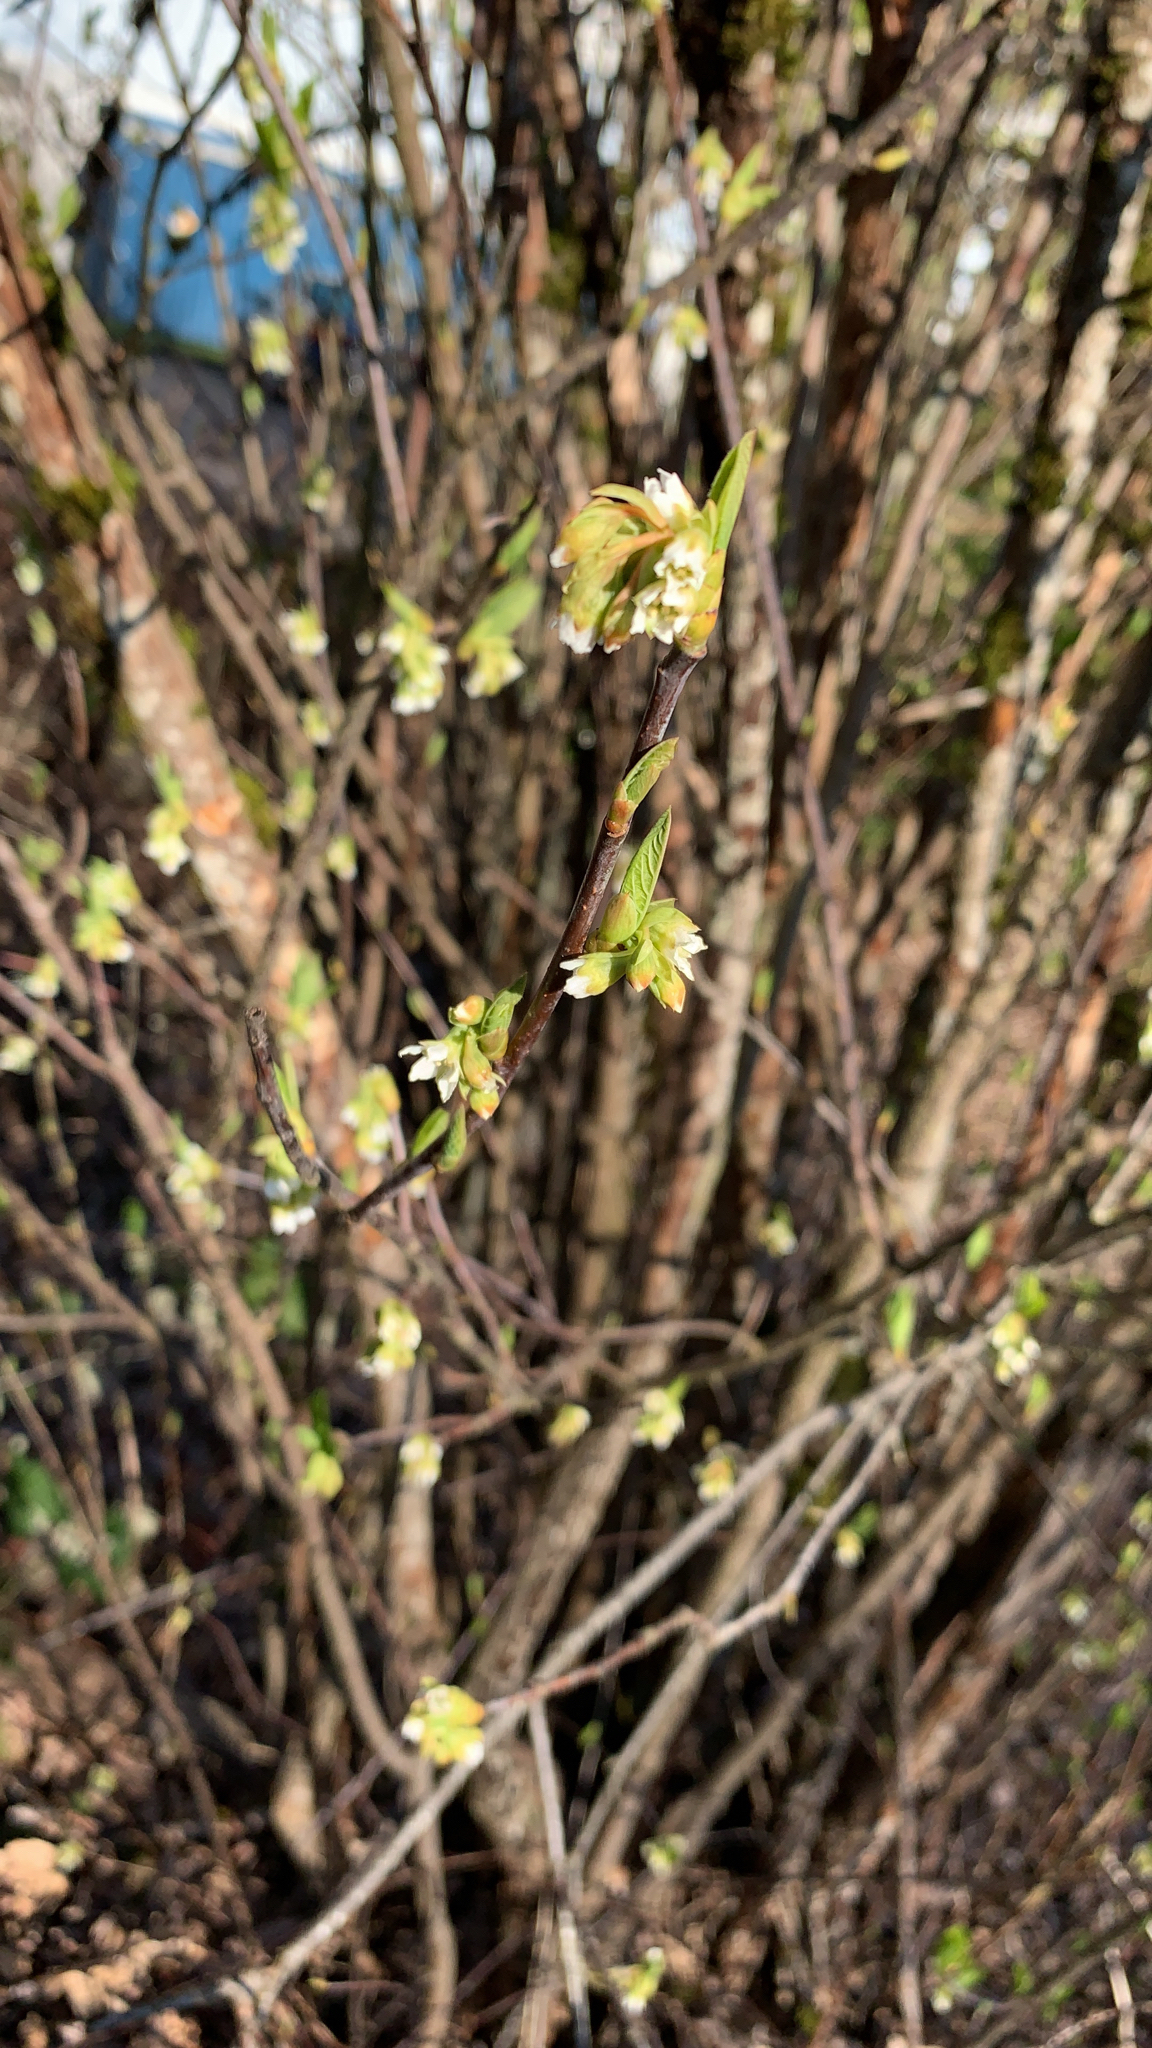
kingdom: Plantae
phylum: Tracheophyta
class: Magnoliopsida
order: Rosales
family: Rosaceae
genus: Oemleria
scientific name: Oemleria cerasiformis
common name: Osoberry
